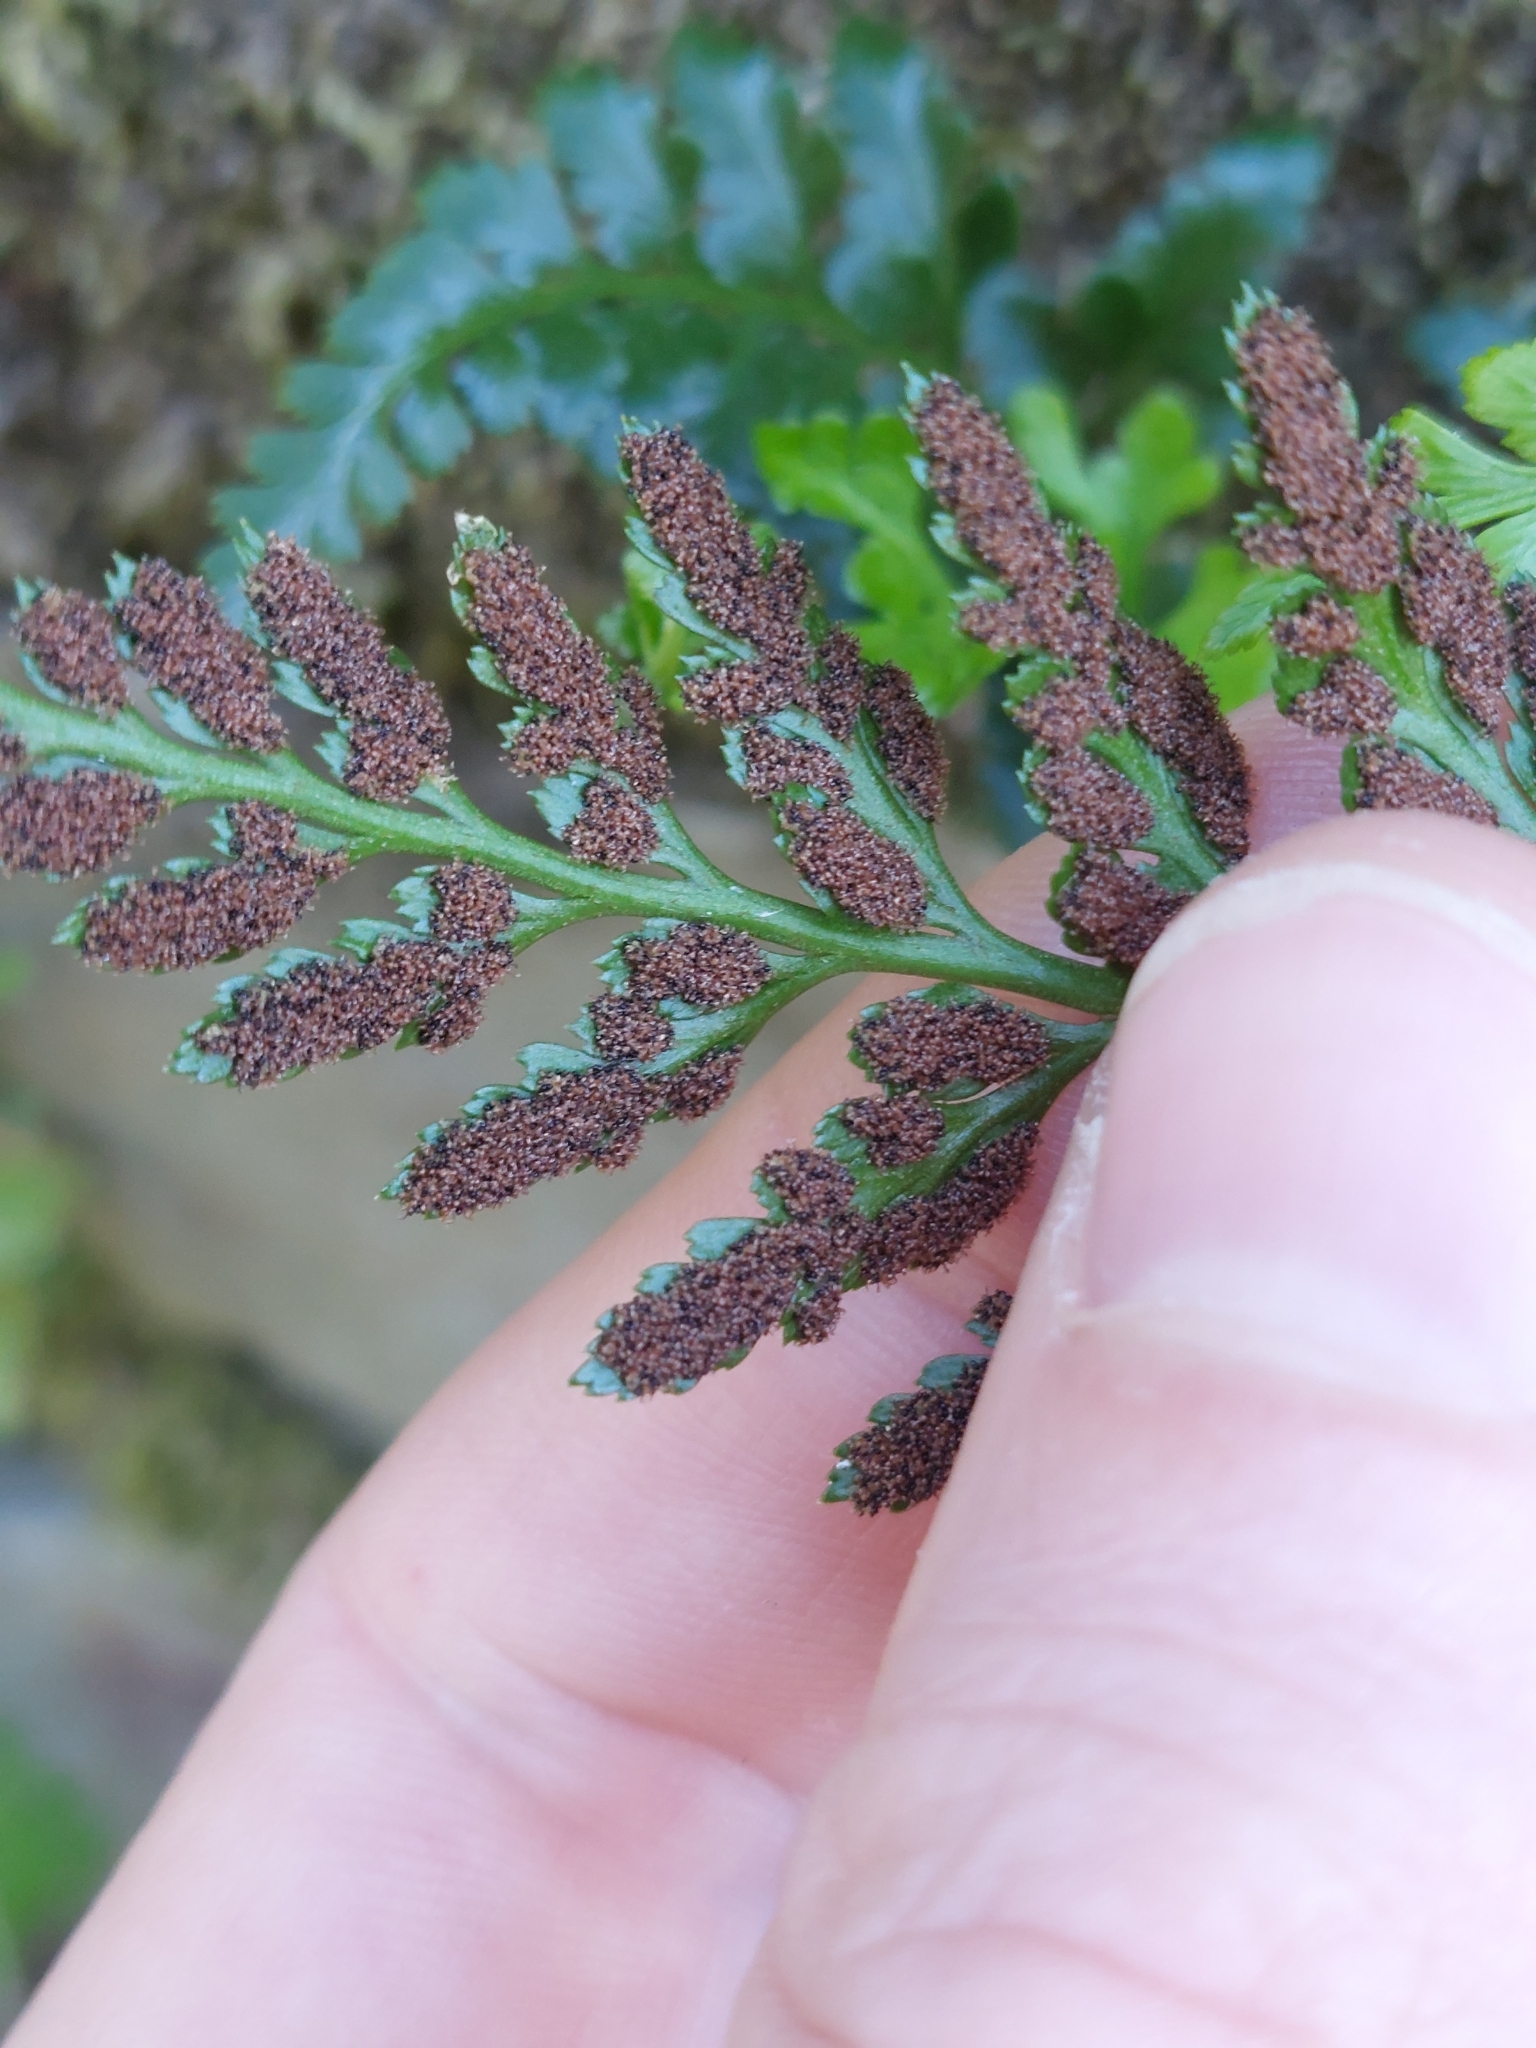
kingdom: Plantae
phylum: Tracheophyta
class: Polypodiopsida
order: Polypodiales
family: Aspleniaceae
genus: Asplenium
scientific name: Asplenium adiantum-nigrum
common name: Black spleenwort
